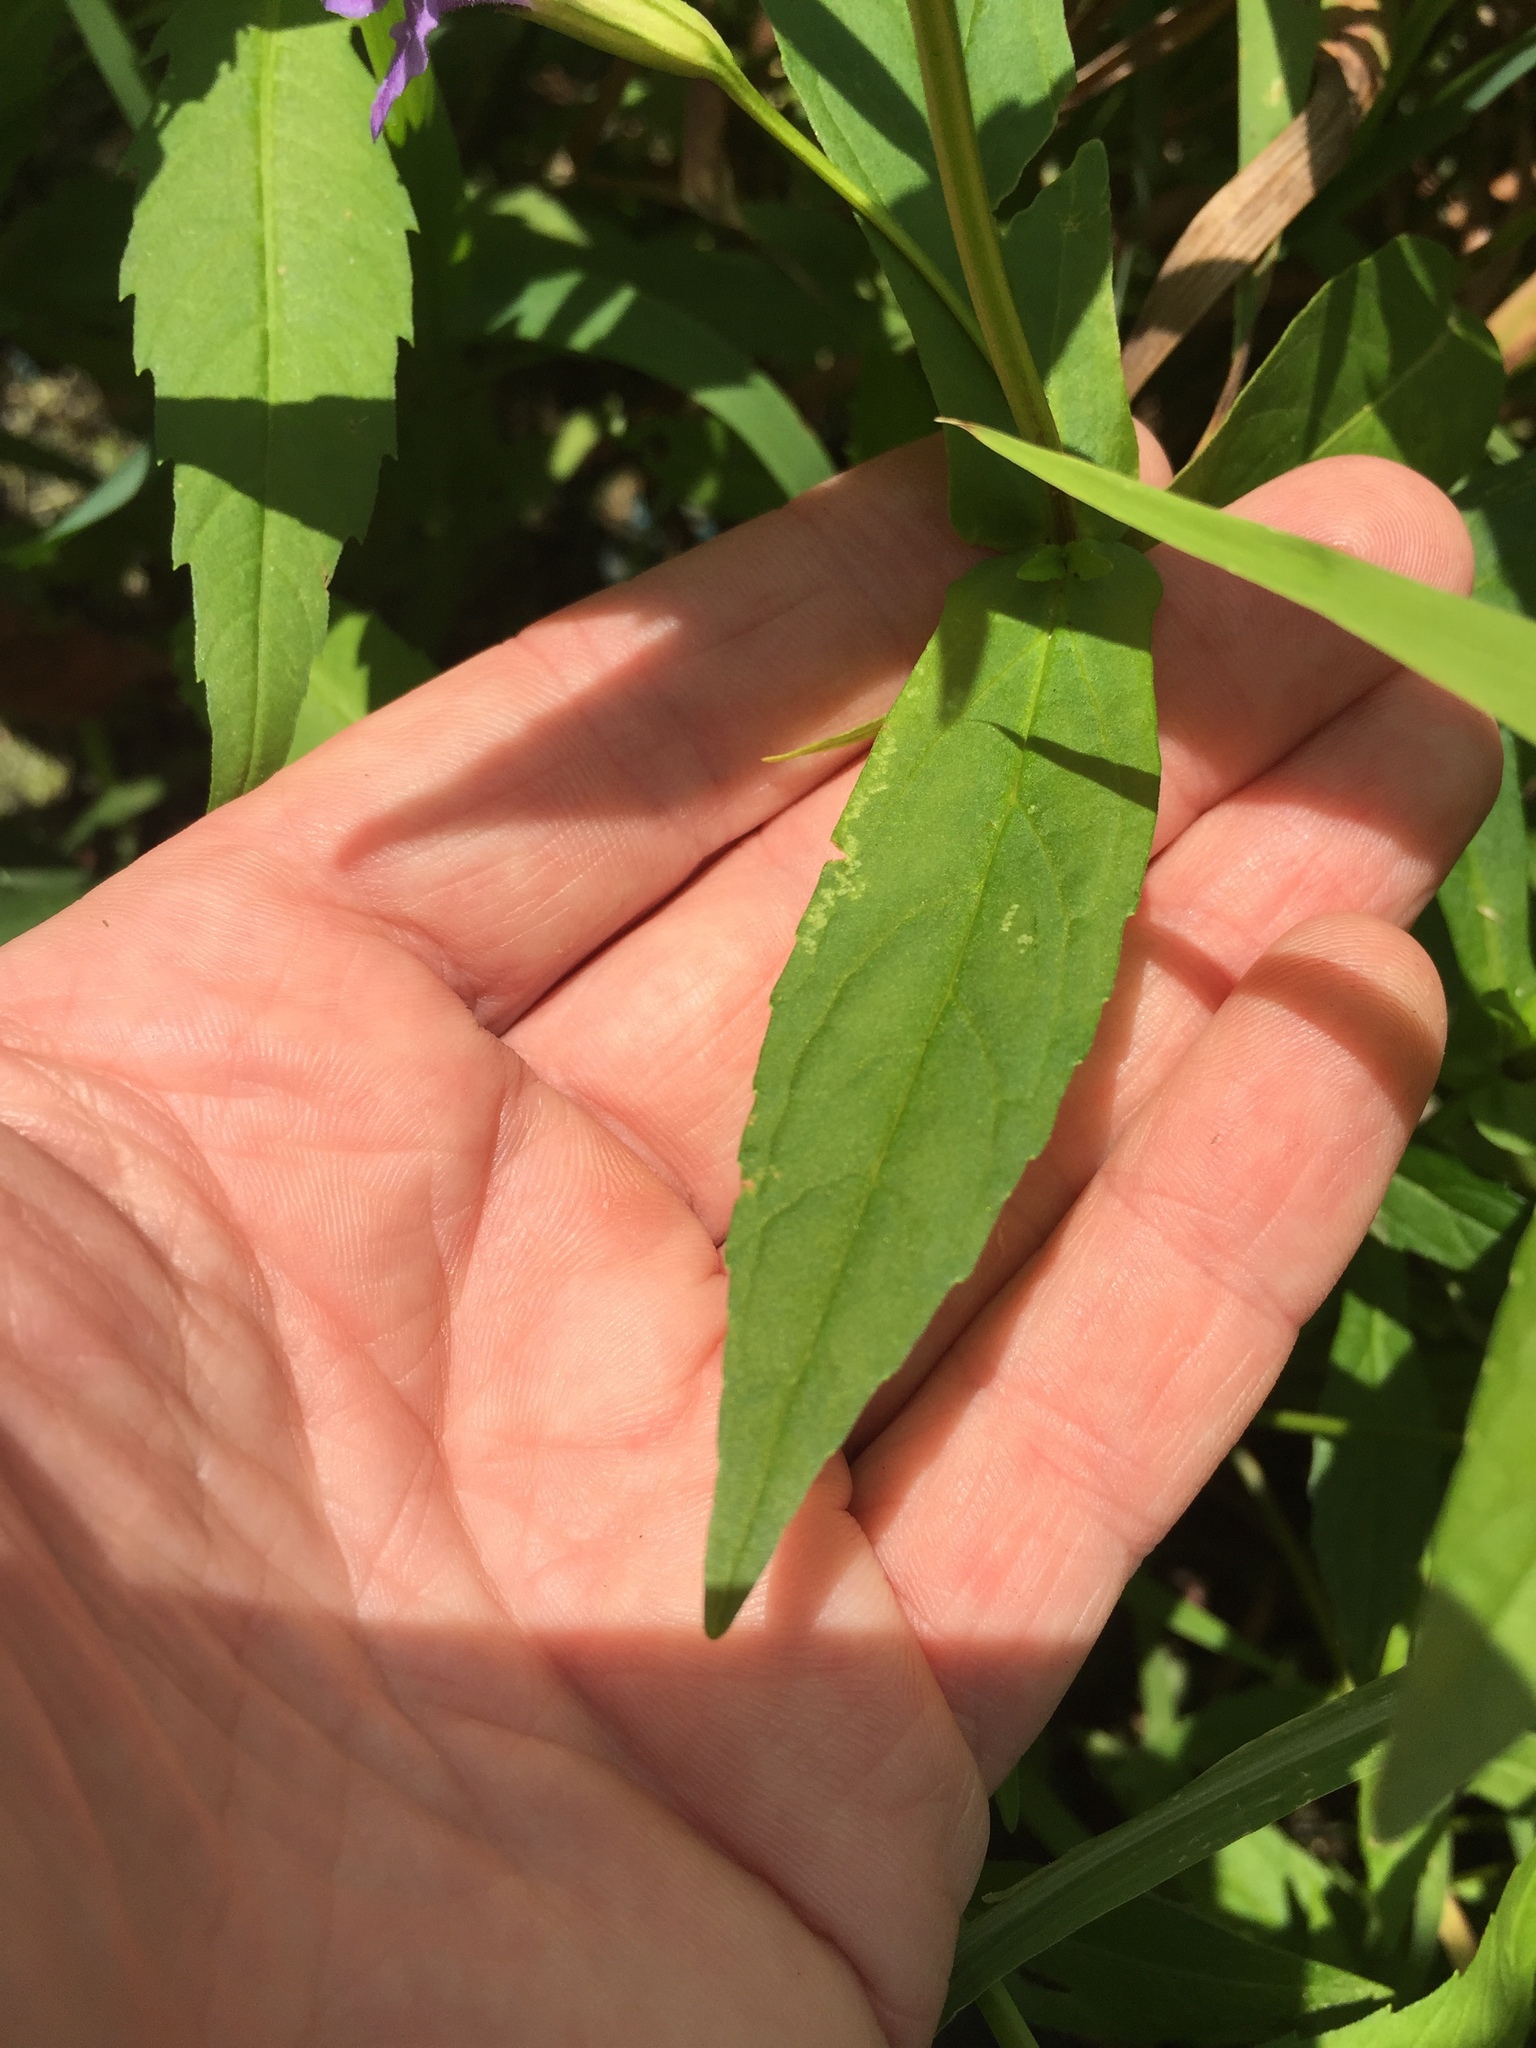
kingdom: Plantae
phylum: Tracheophyta
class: Magnoliopsida
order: Lamiales
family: Phrymaceae
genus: Mimulus
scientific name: Mimulus ringens
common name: Allegheny monkeyflower
